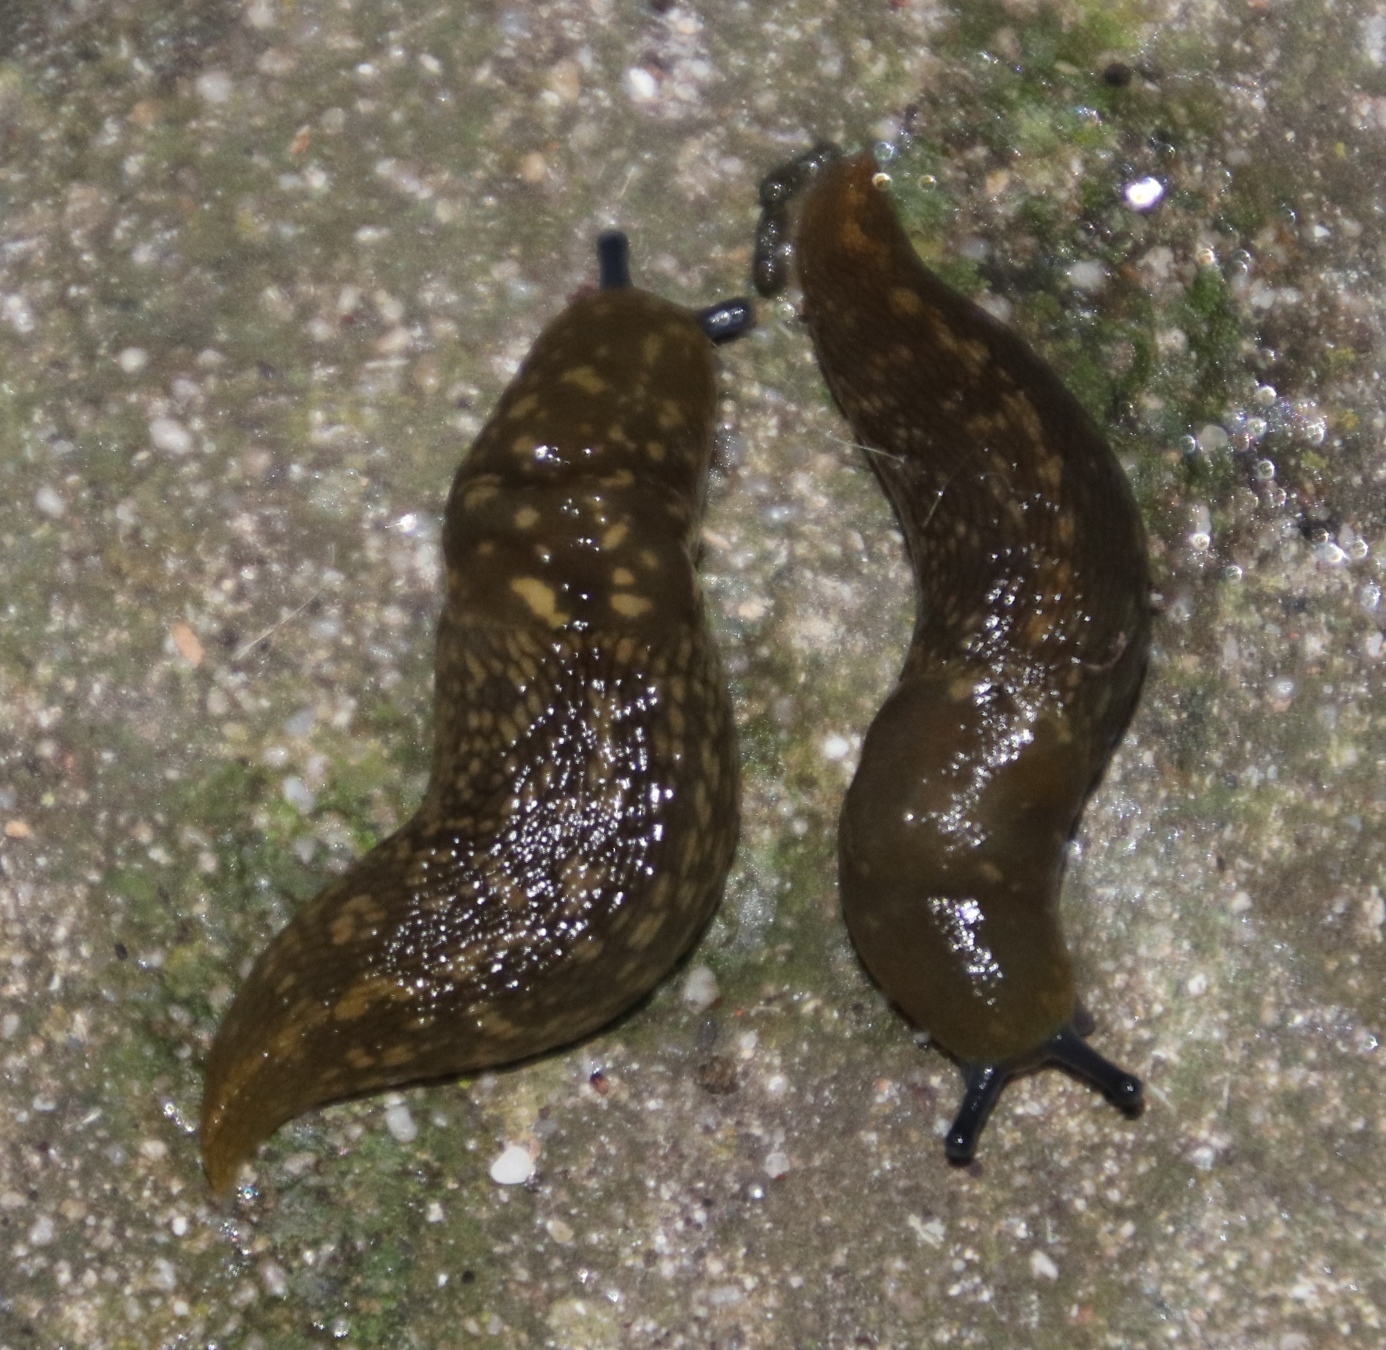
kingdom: Animalia
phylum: Mollusca
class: Gastropoda
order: Stylommatophora
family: Limacidae
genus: Limacus
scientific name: Limacus flavus
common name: Yellow gardenslug
